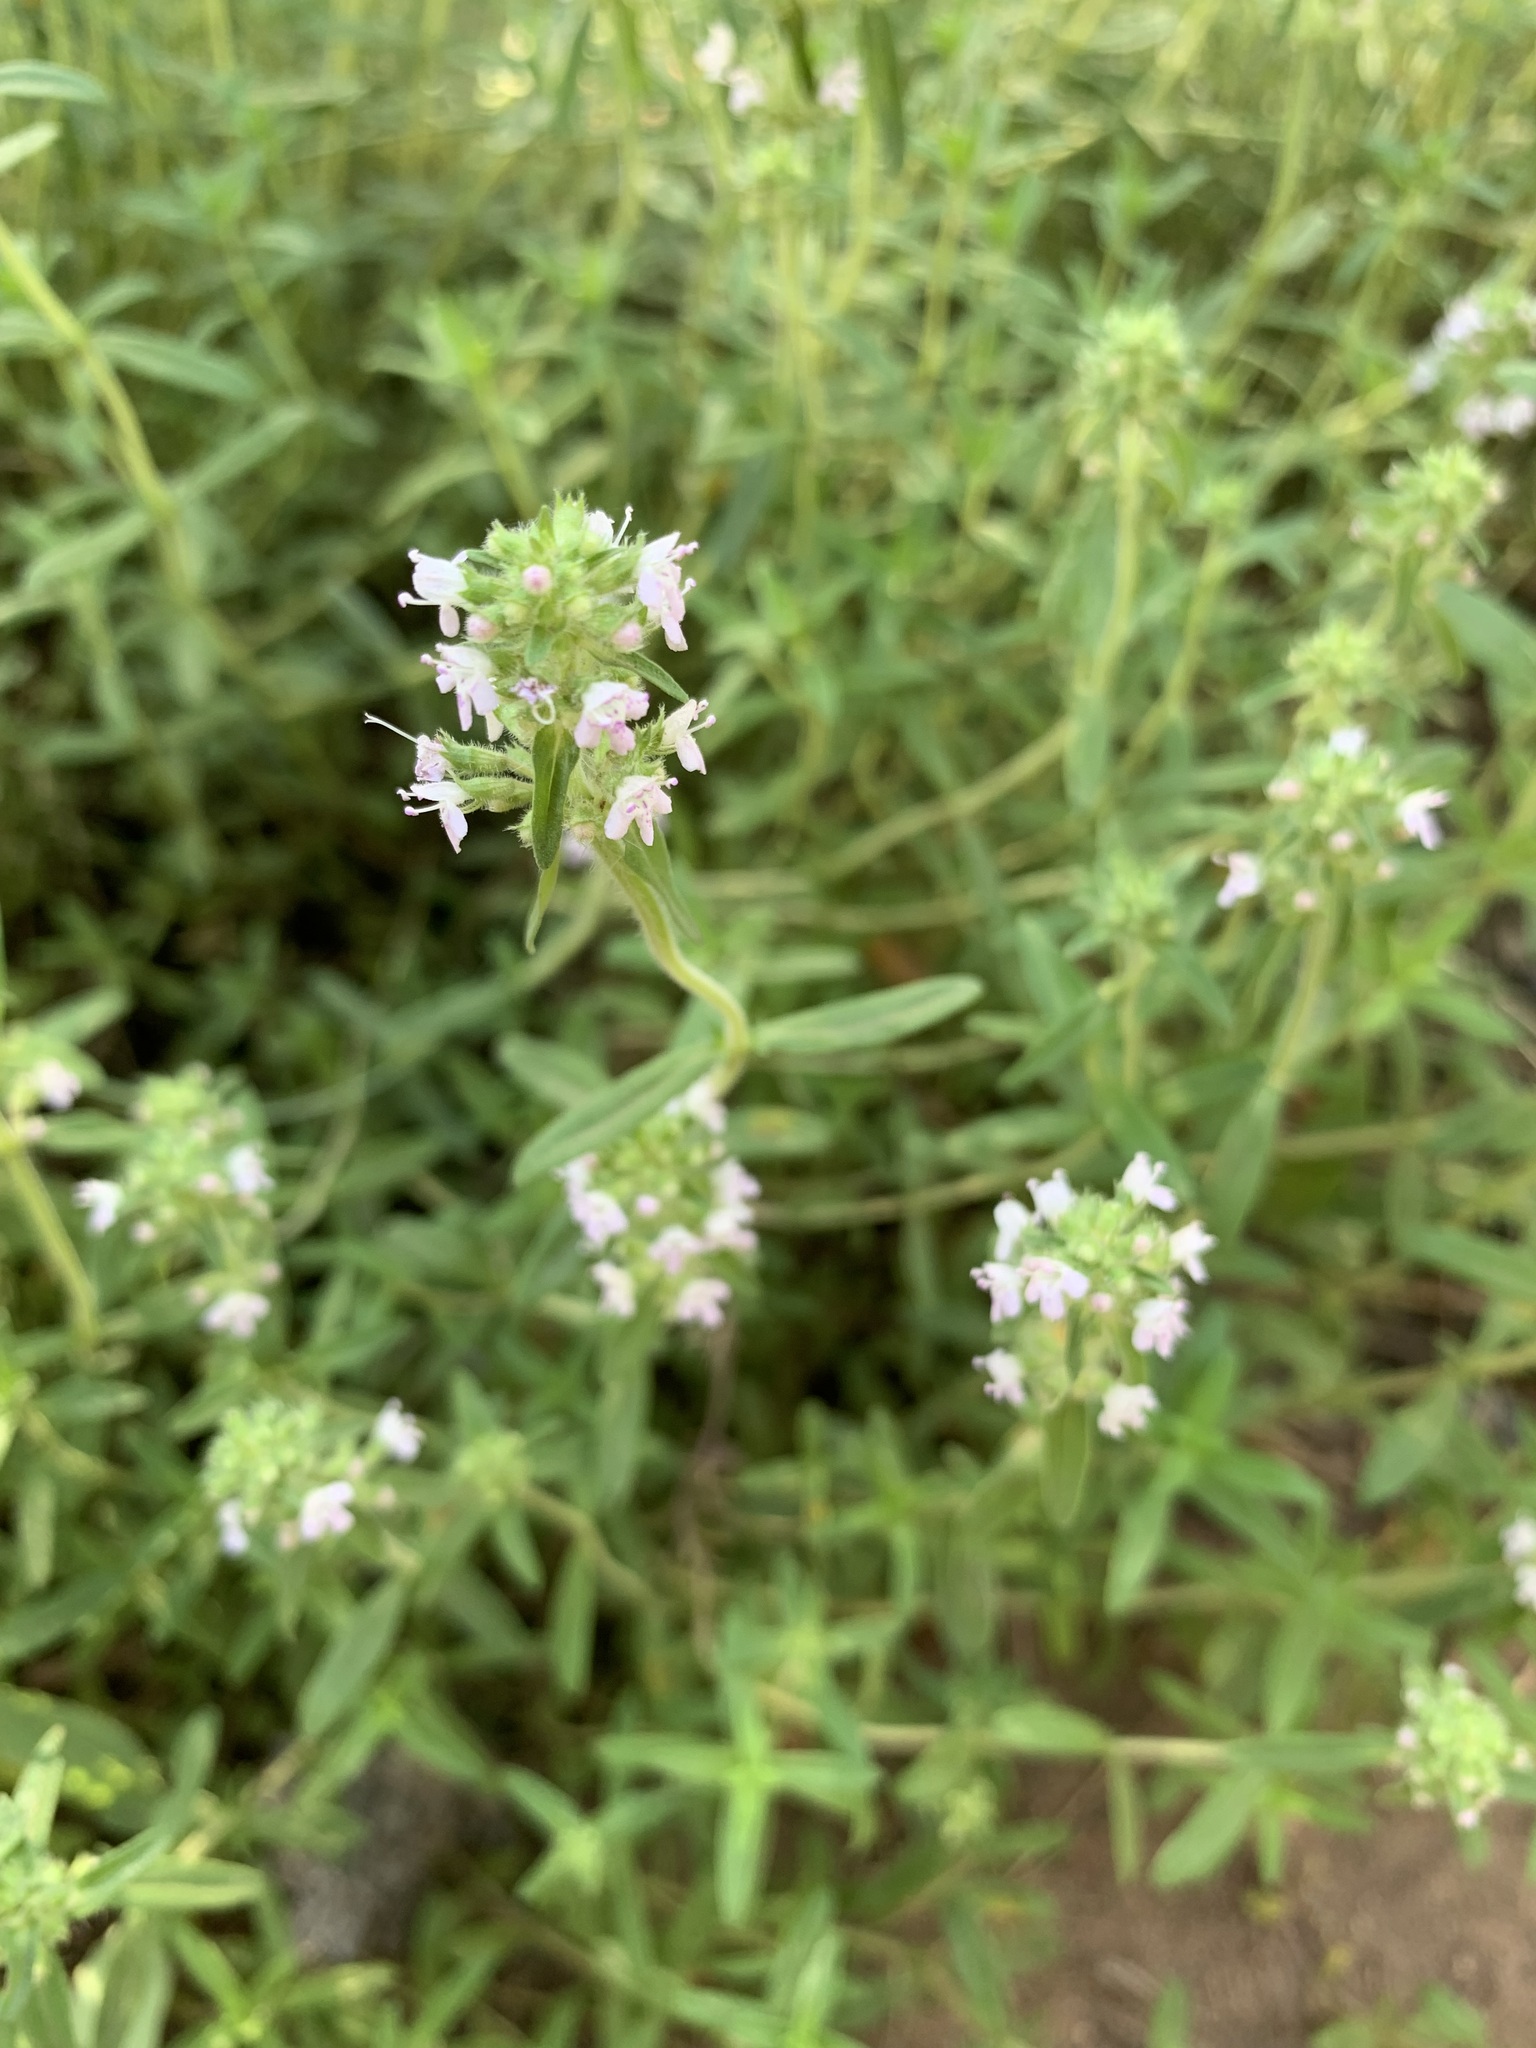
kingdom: Plantae
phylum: Tracheophyta
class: Magnoliopsida
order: Lamiales
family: Lamiaceae
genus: Thymus
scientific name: Thymus pannonicus
